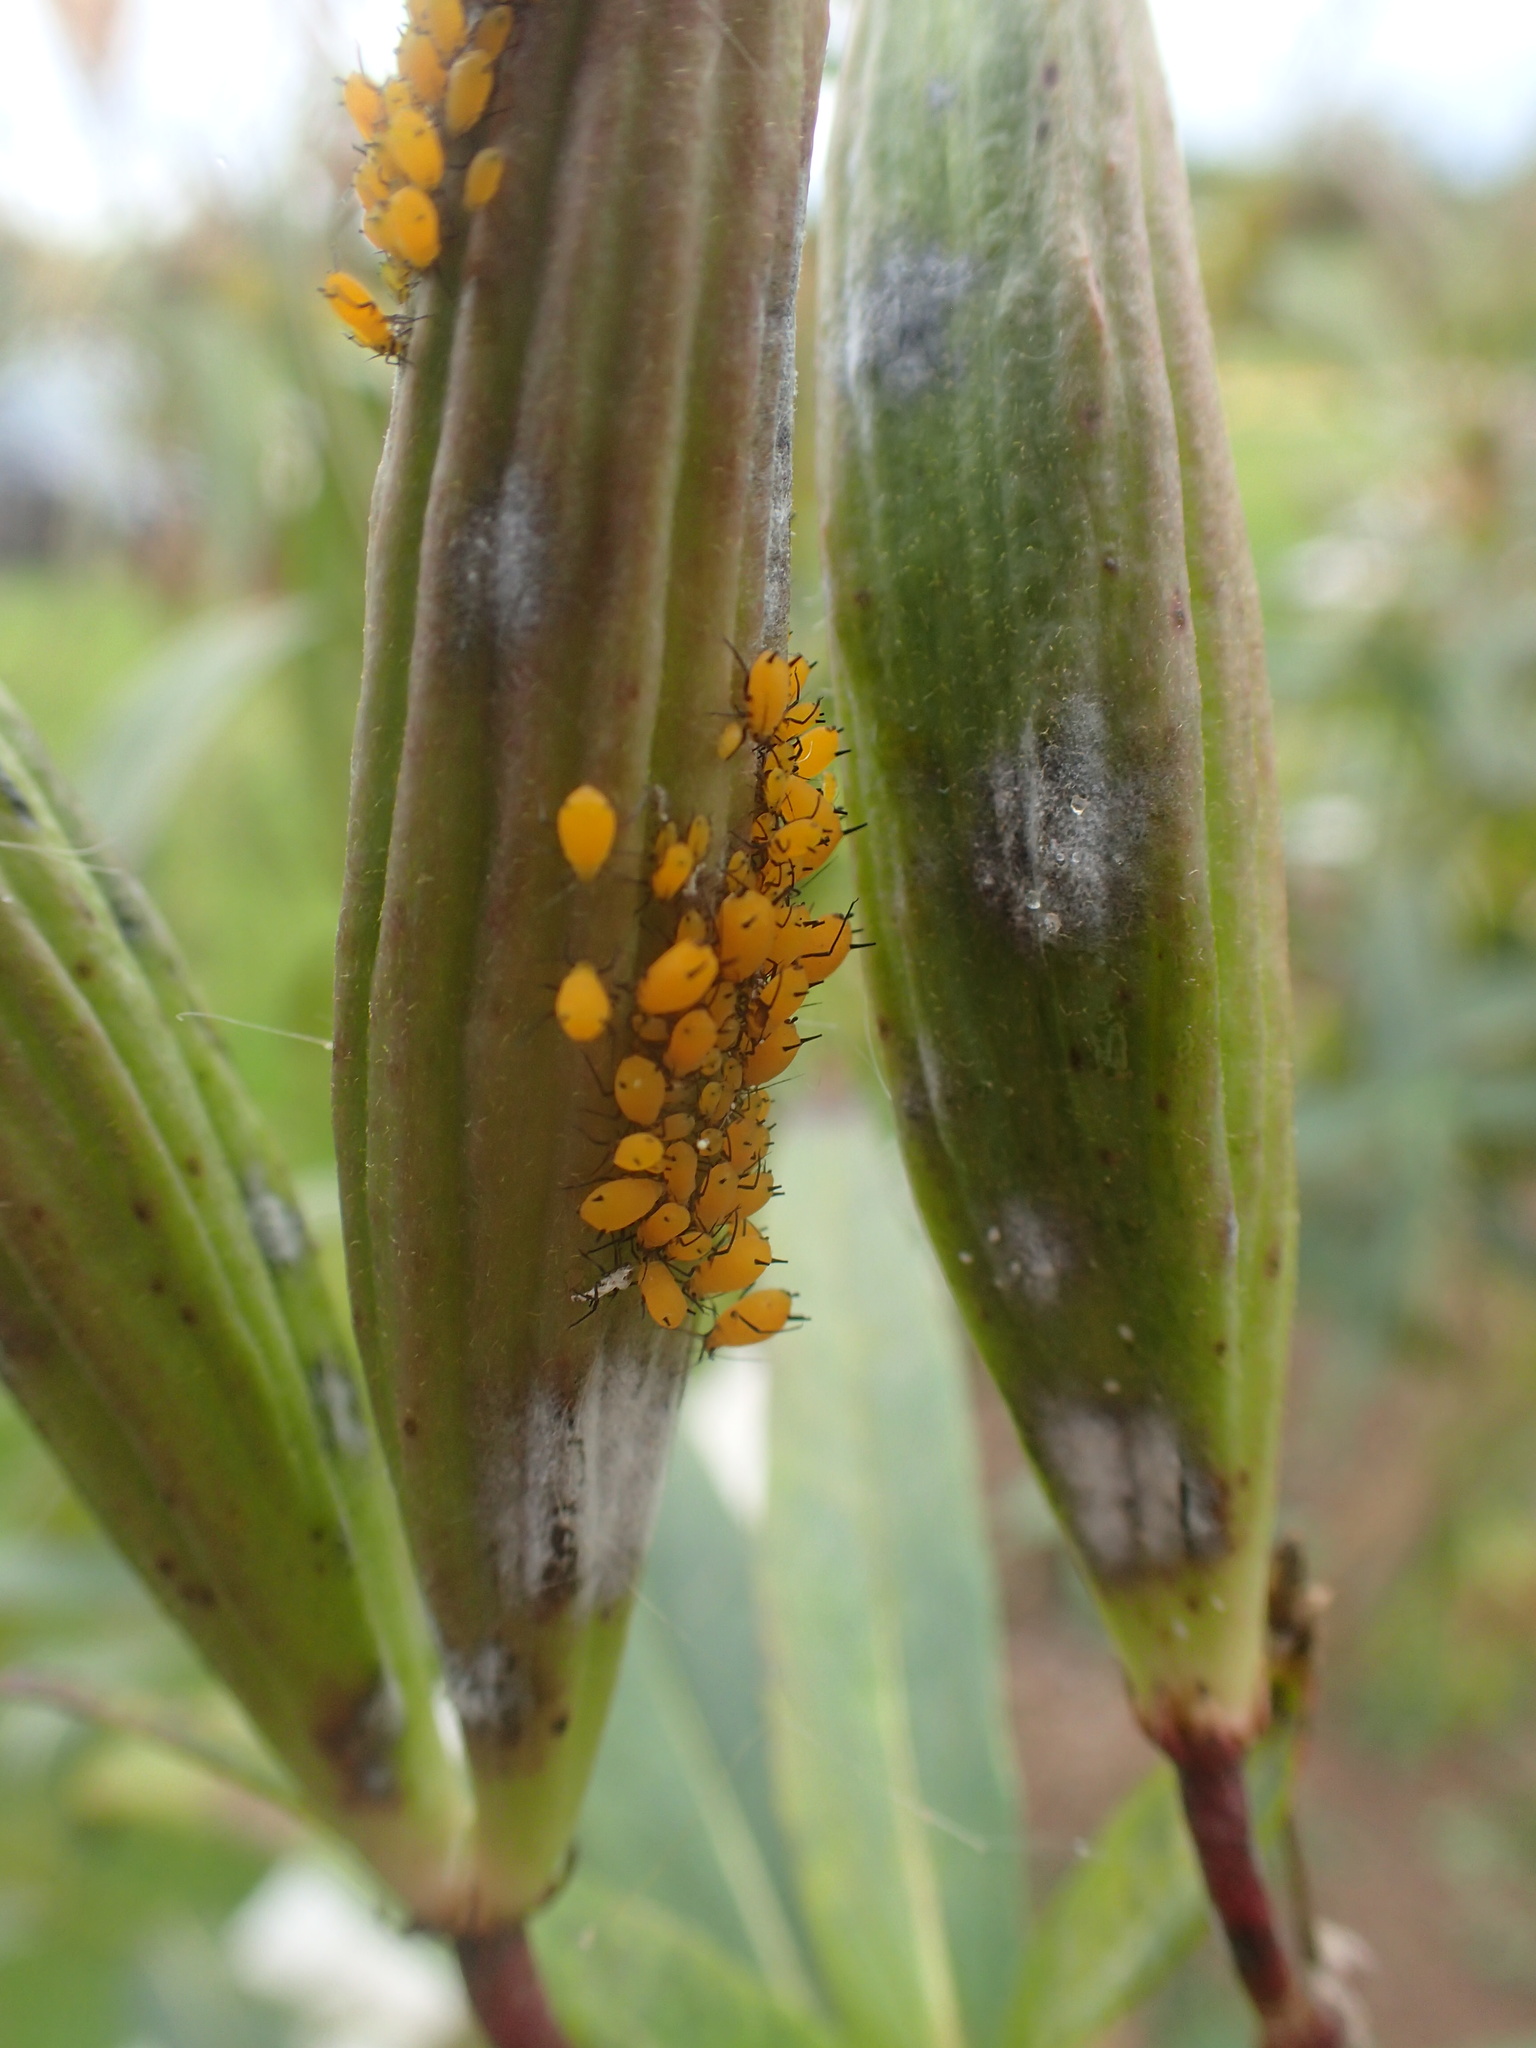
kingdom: Animalia
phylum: Arthropoda
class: Insecta
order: Hemiptera
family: Aphididae
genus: Aphis
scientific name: Aphis nerii
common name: Oleander aphid
